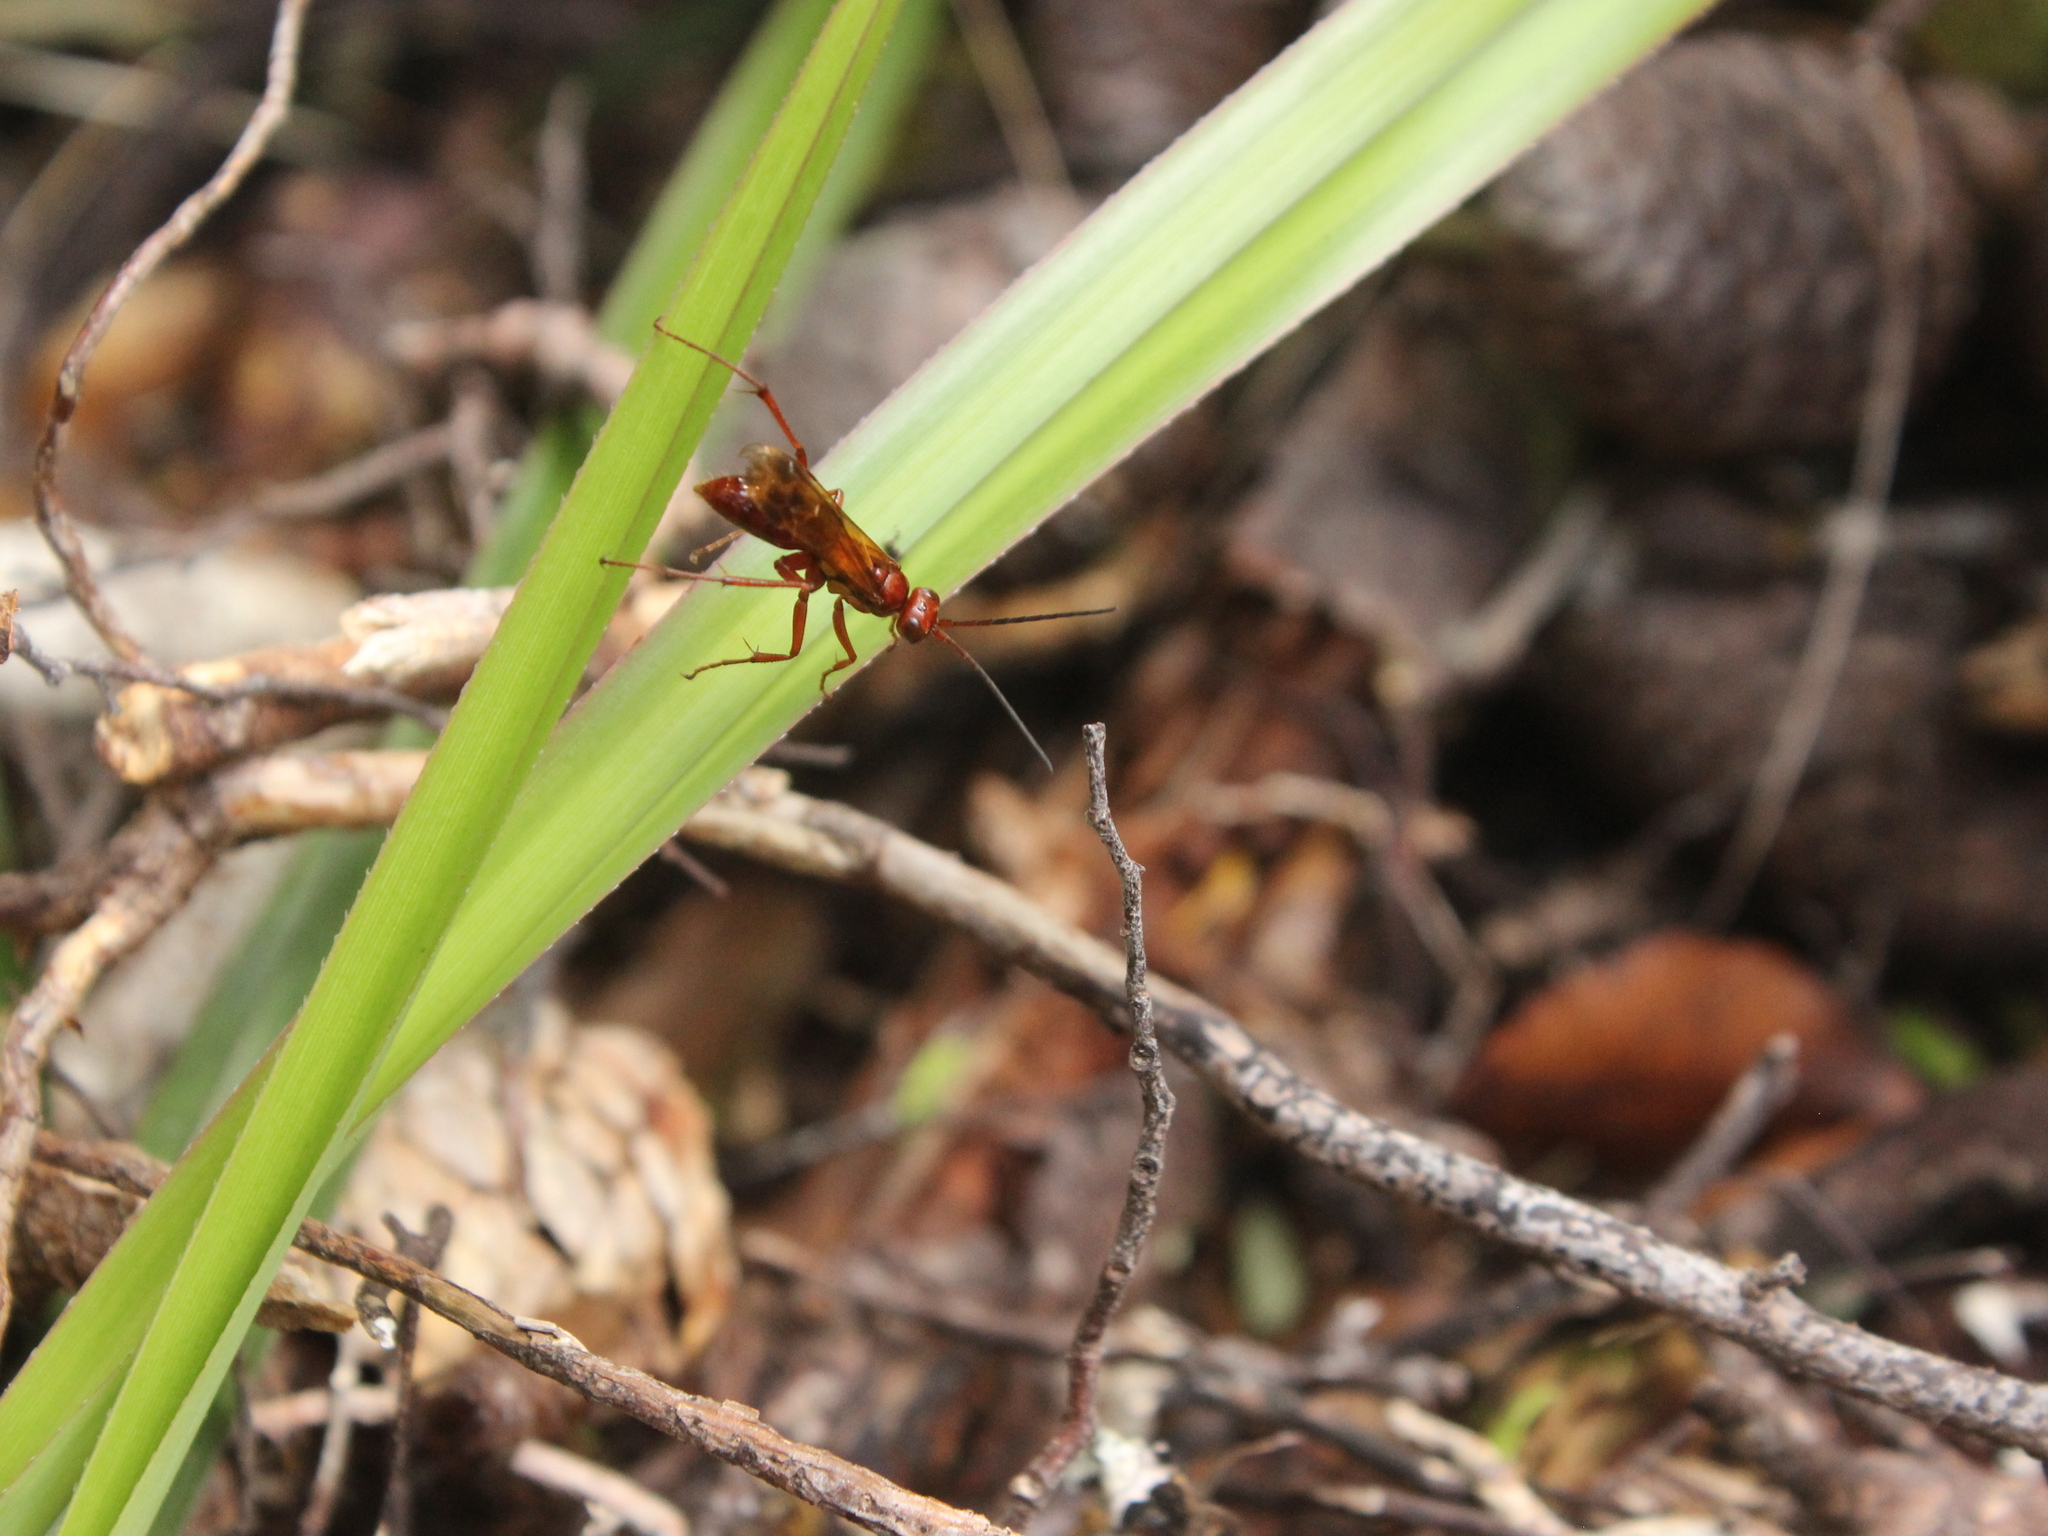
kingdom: Animalia
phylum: Arthropoda
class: Insecta
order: Hymenoptera
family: Pompilidae
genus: Sphictostethus
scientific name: Sphictostethus nitidus
